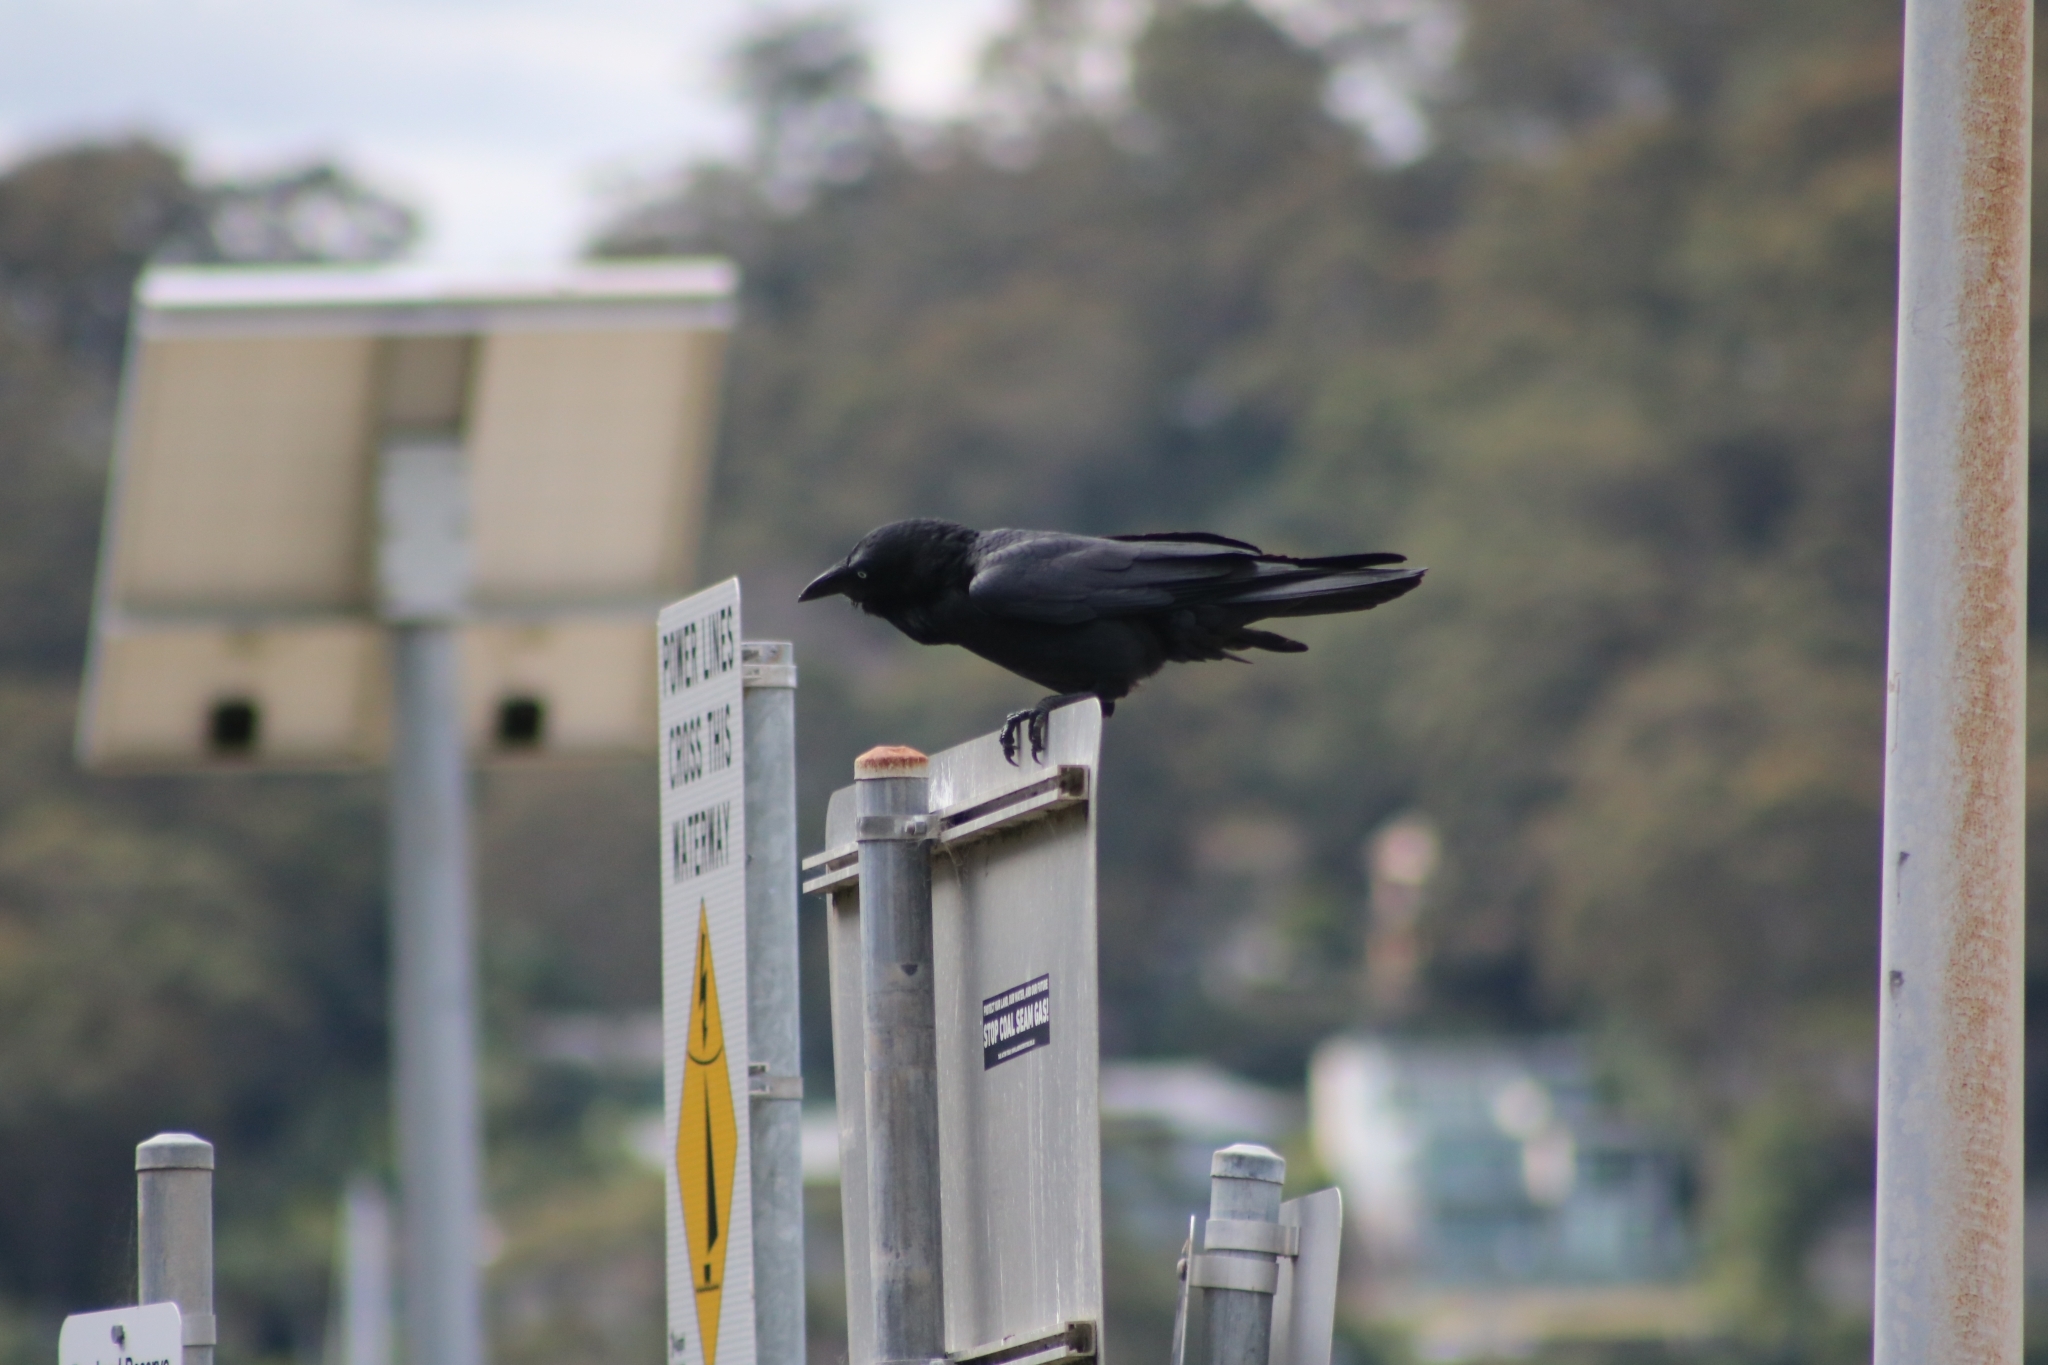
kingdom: Animalia
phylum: Chordata
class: Aves
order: Passeriformes
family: Corvidae
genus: Corvus
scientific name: Corvus coronoides
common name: Australian raven
